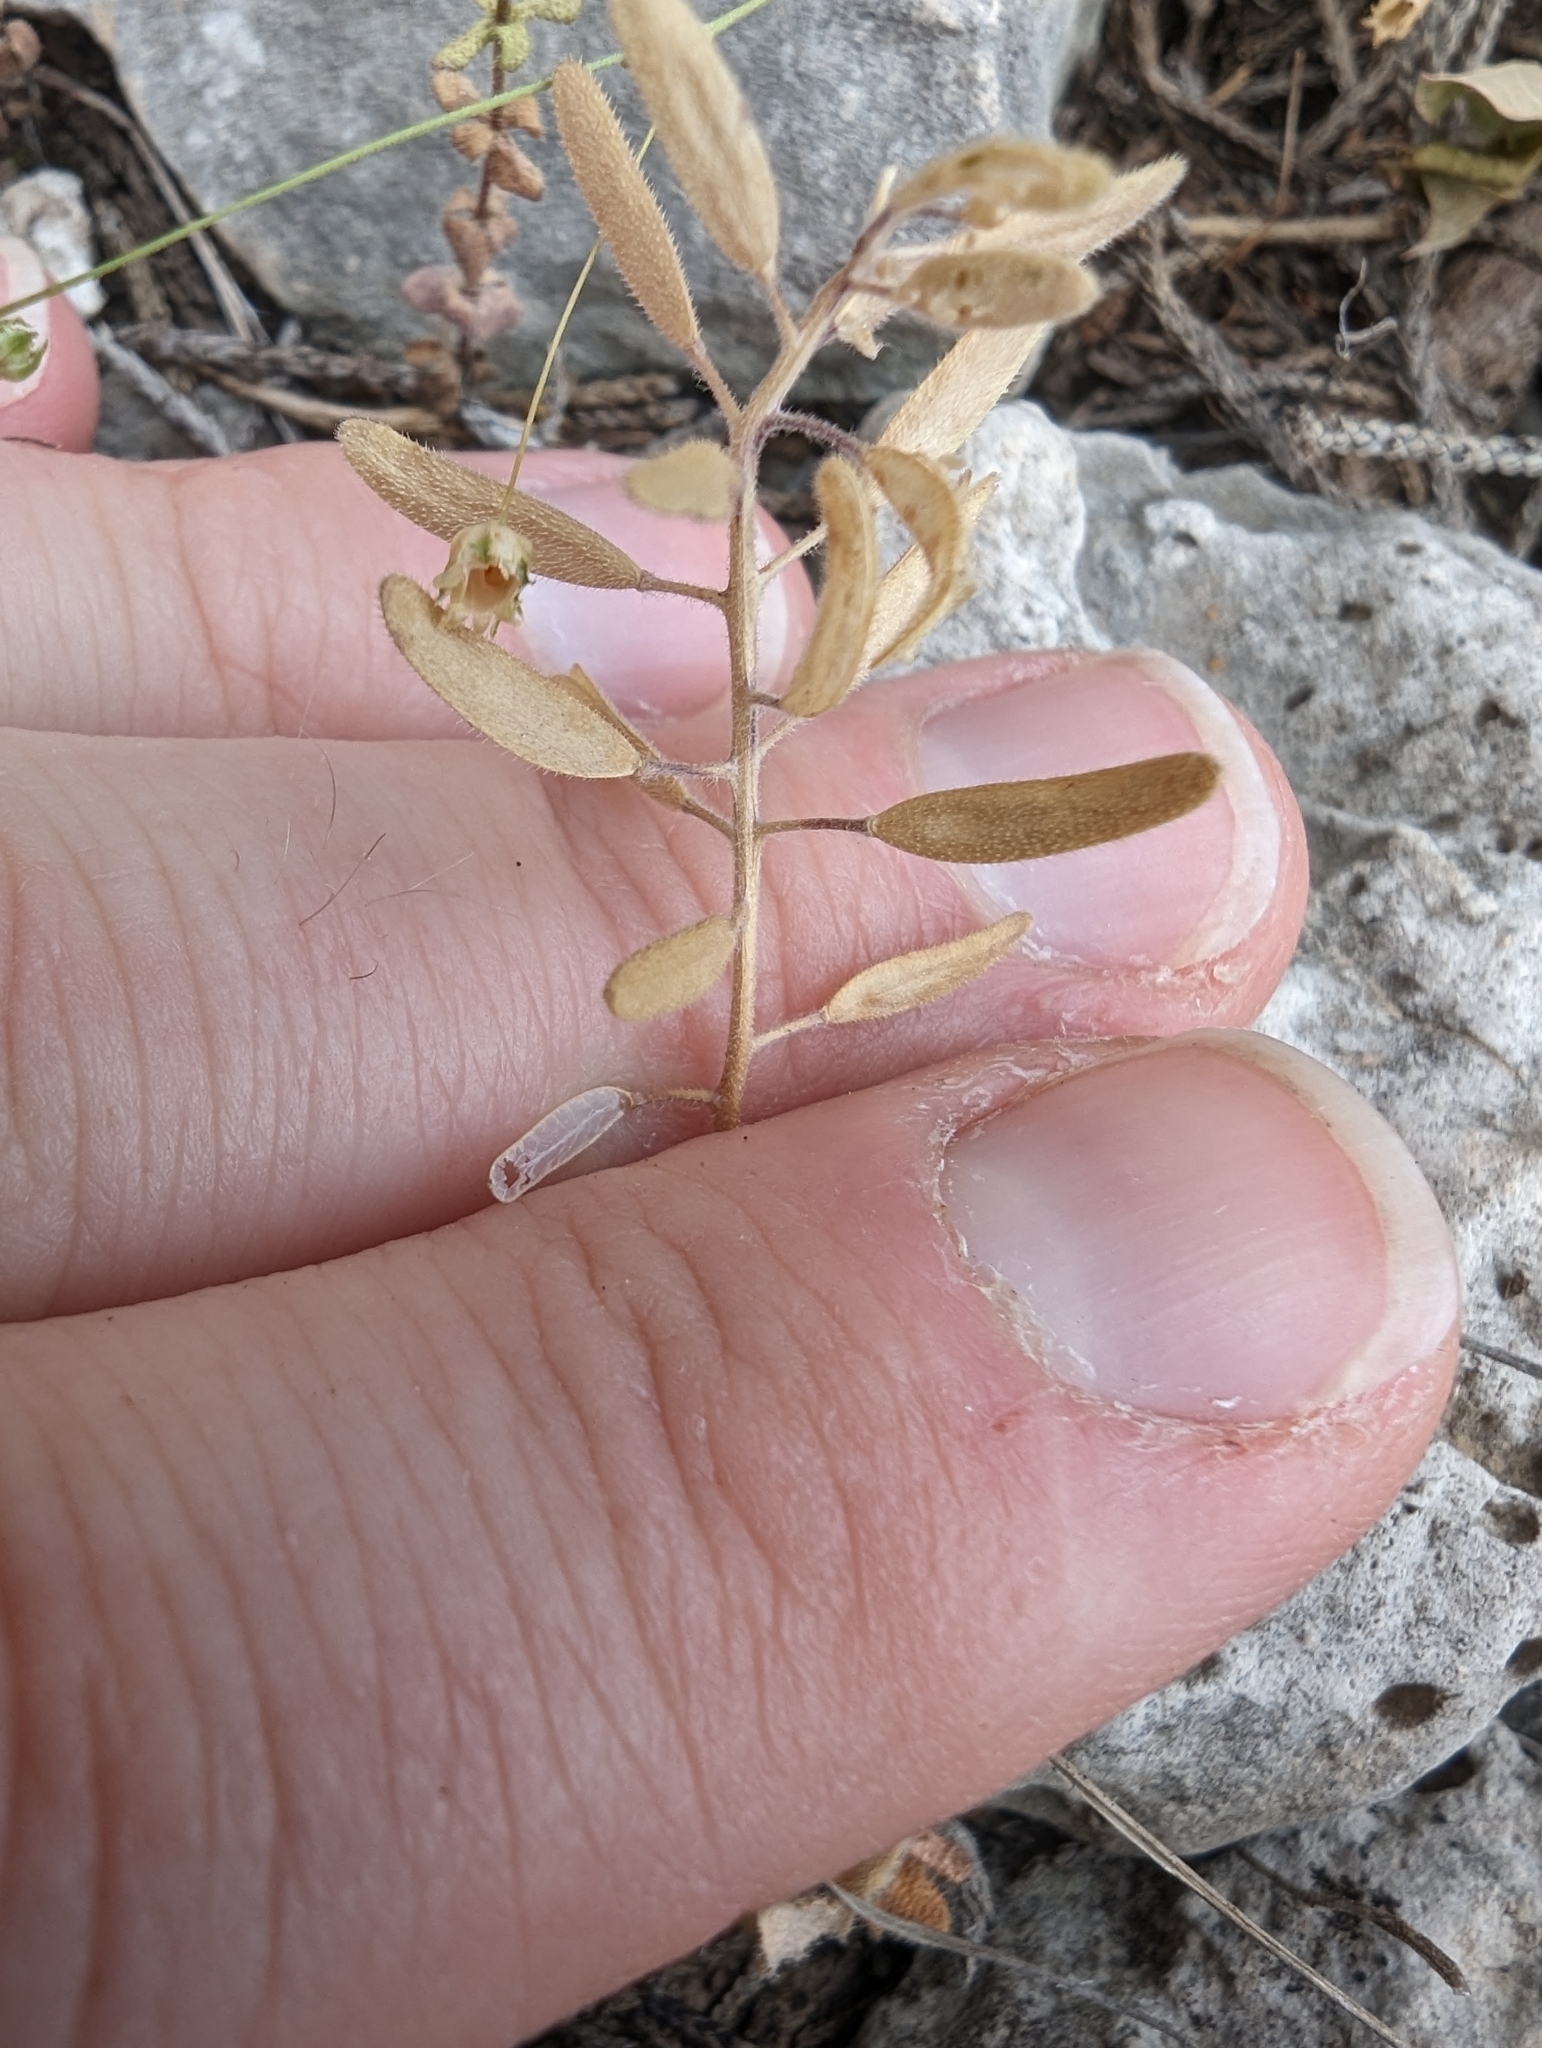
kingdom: Plantae
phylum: Tracheophyta
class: Magnoliopsida
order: Brassicales
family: Brassicaceae
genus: Tomostima
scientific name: Tomostima cuneifolia
